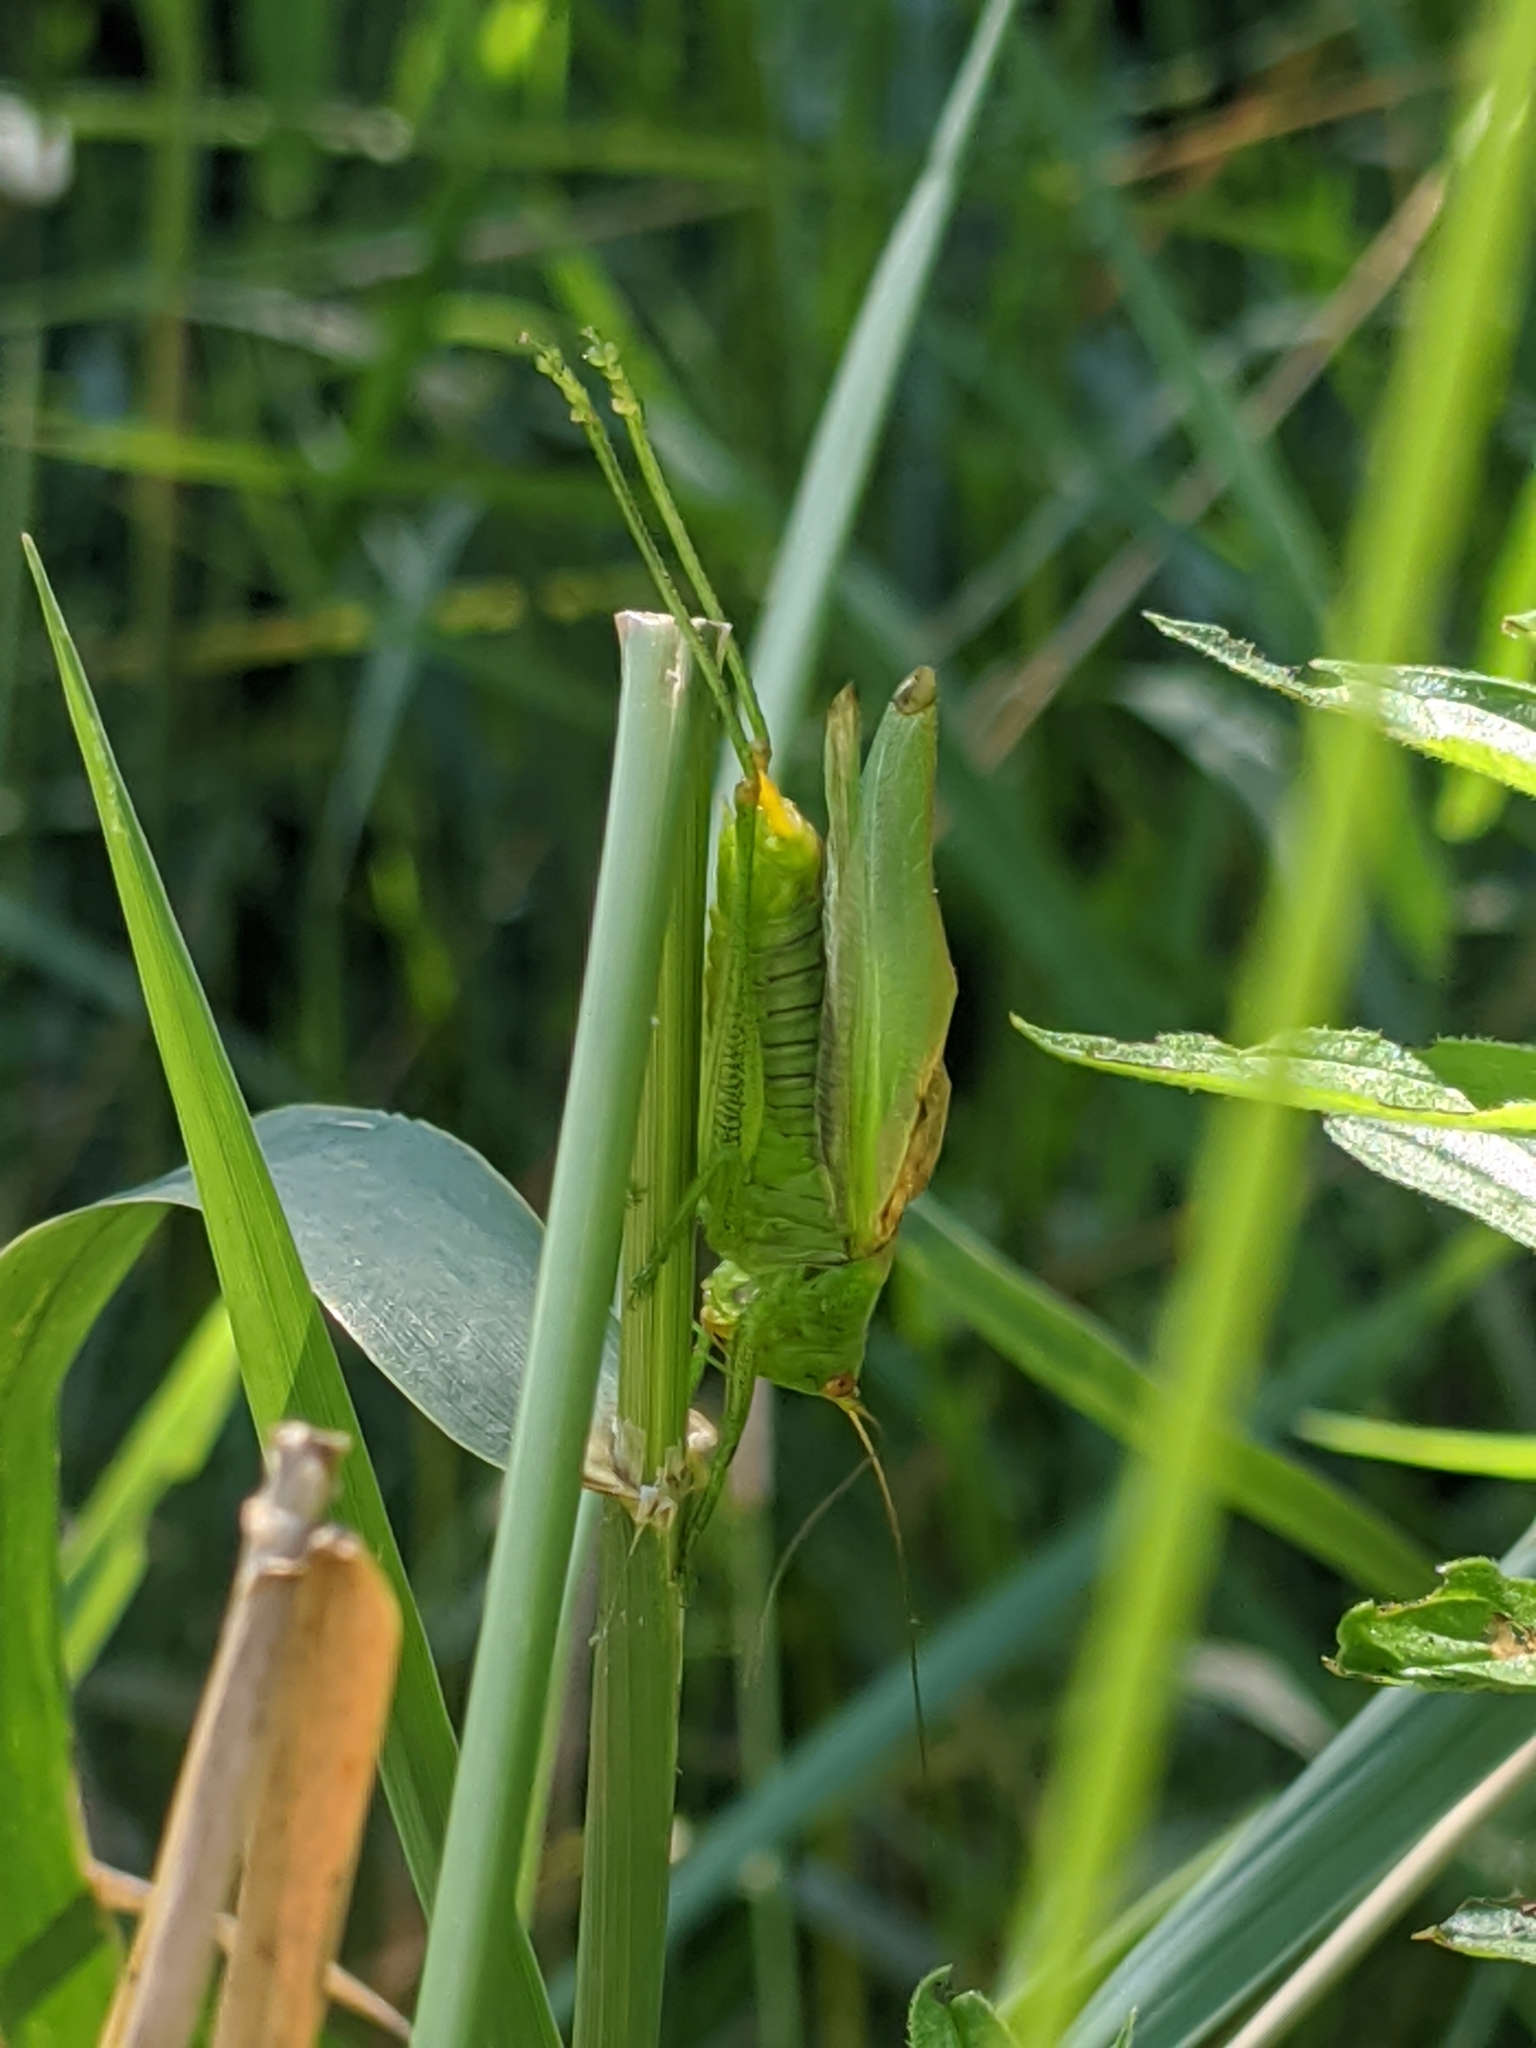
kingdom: Animalia
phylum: Arthropoda
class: Insecta
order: Orthoptera
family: Tettigoniidae
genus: Orchelimum
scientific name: Orchelimum gladiator
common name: Gladiator meadow katydid
